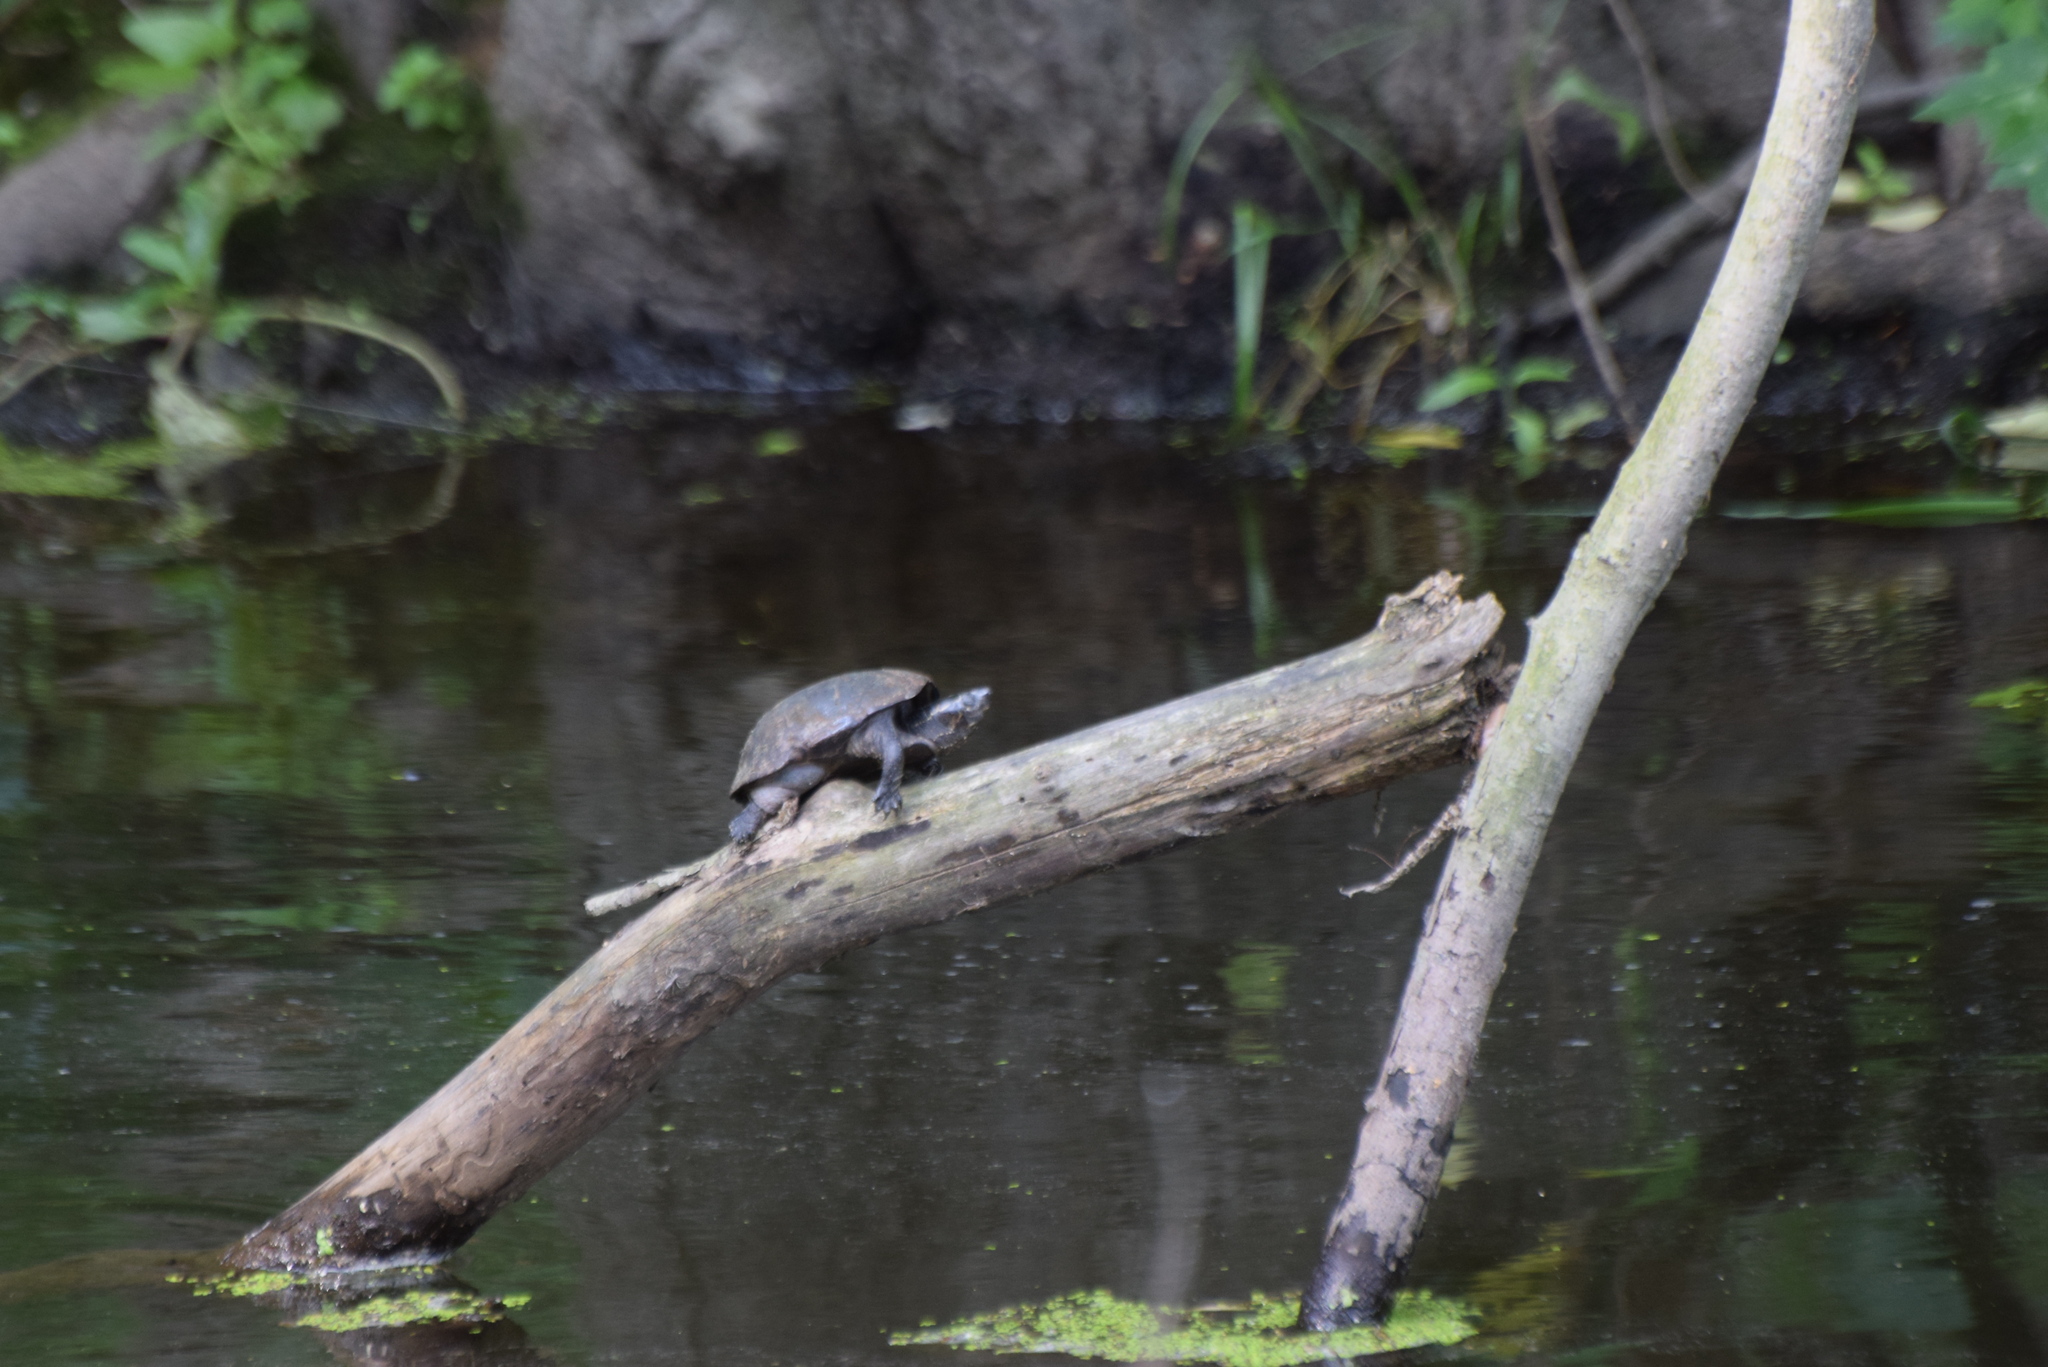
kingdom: Animalia
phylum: Chordata
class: Testudines
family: Kinosternidae
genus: Sternotherus
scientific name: Sternotherus odoratus
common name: Common musk turtle
